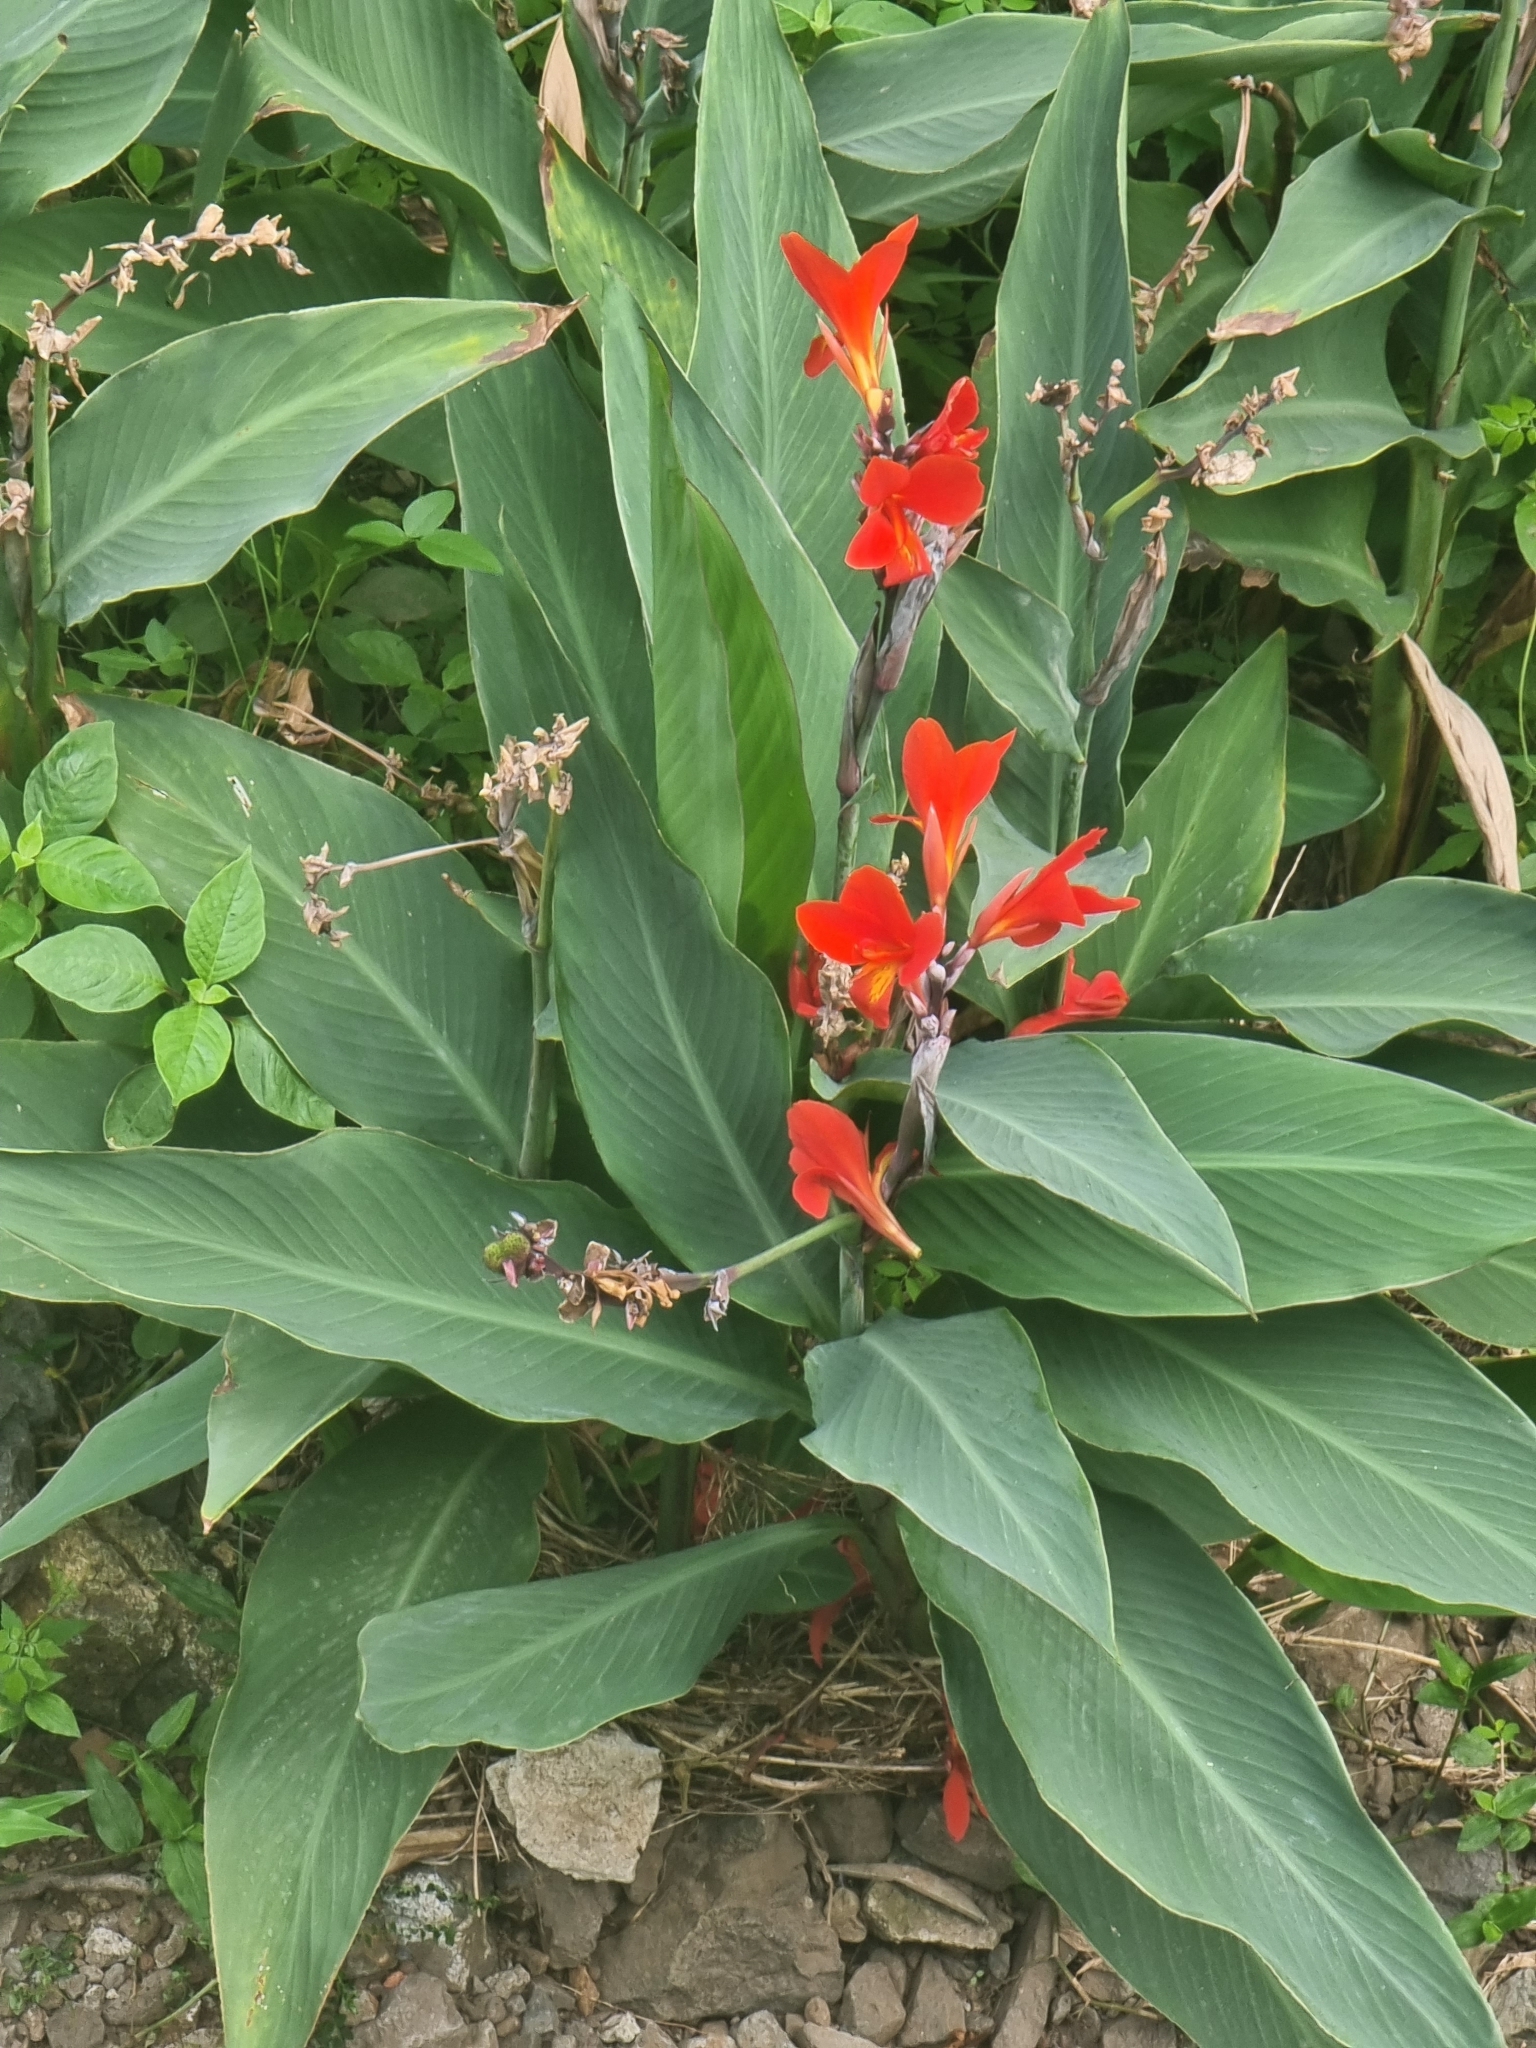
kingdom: Plantae
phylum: Tracheophyta
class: Liliopsida
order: Zingiberales
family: Cannaceae
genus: Canna
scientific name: Canna indica
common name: Indian shot
